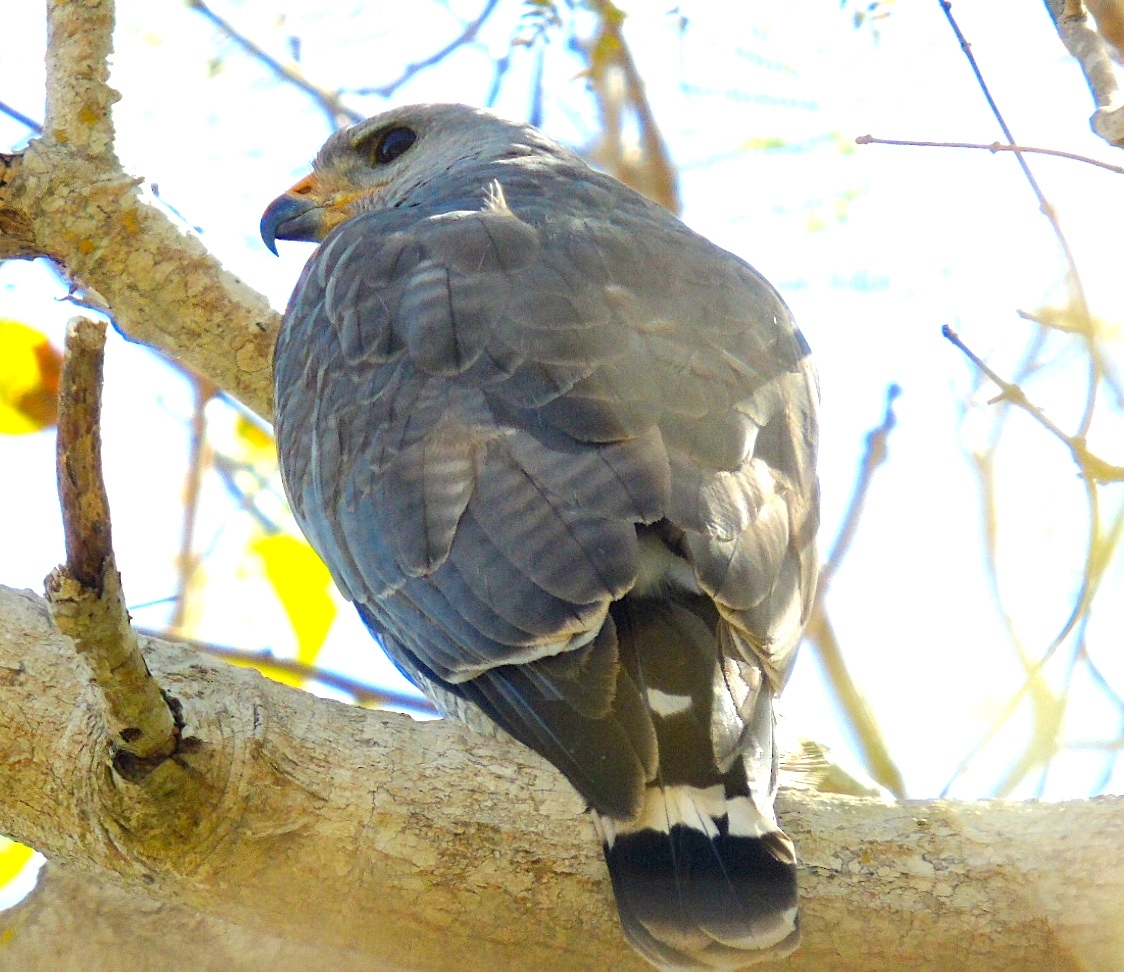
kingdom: Animalia
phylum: Chordata
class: Aves
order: Accipitriformes
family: Accipitridae
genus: Buteo
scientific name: Buteo nitidus
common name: Grey-lined hawk
